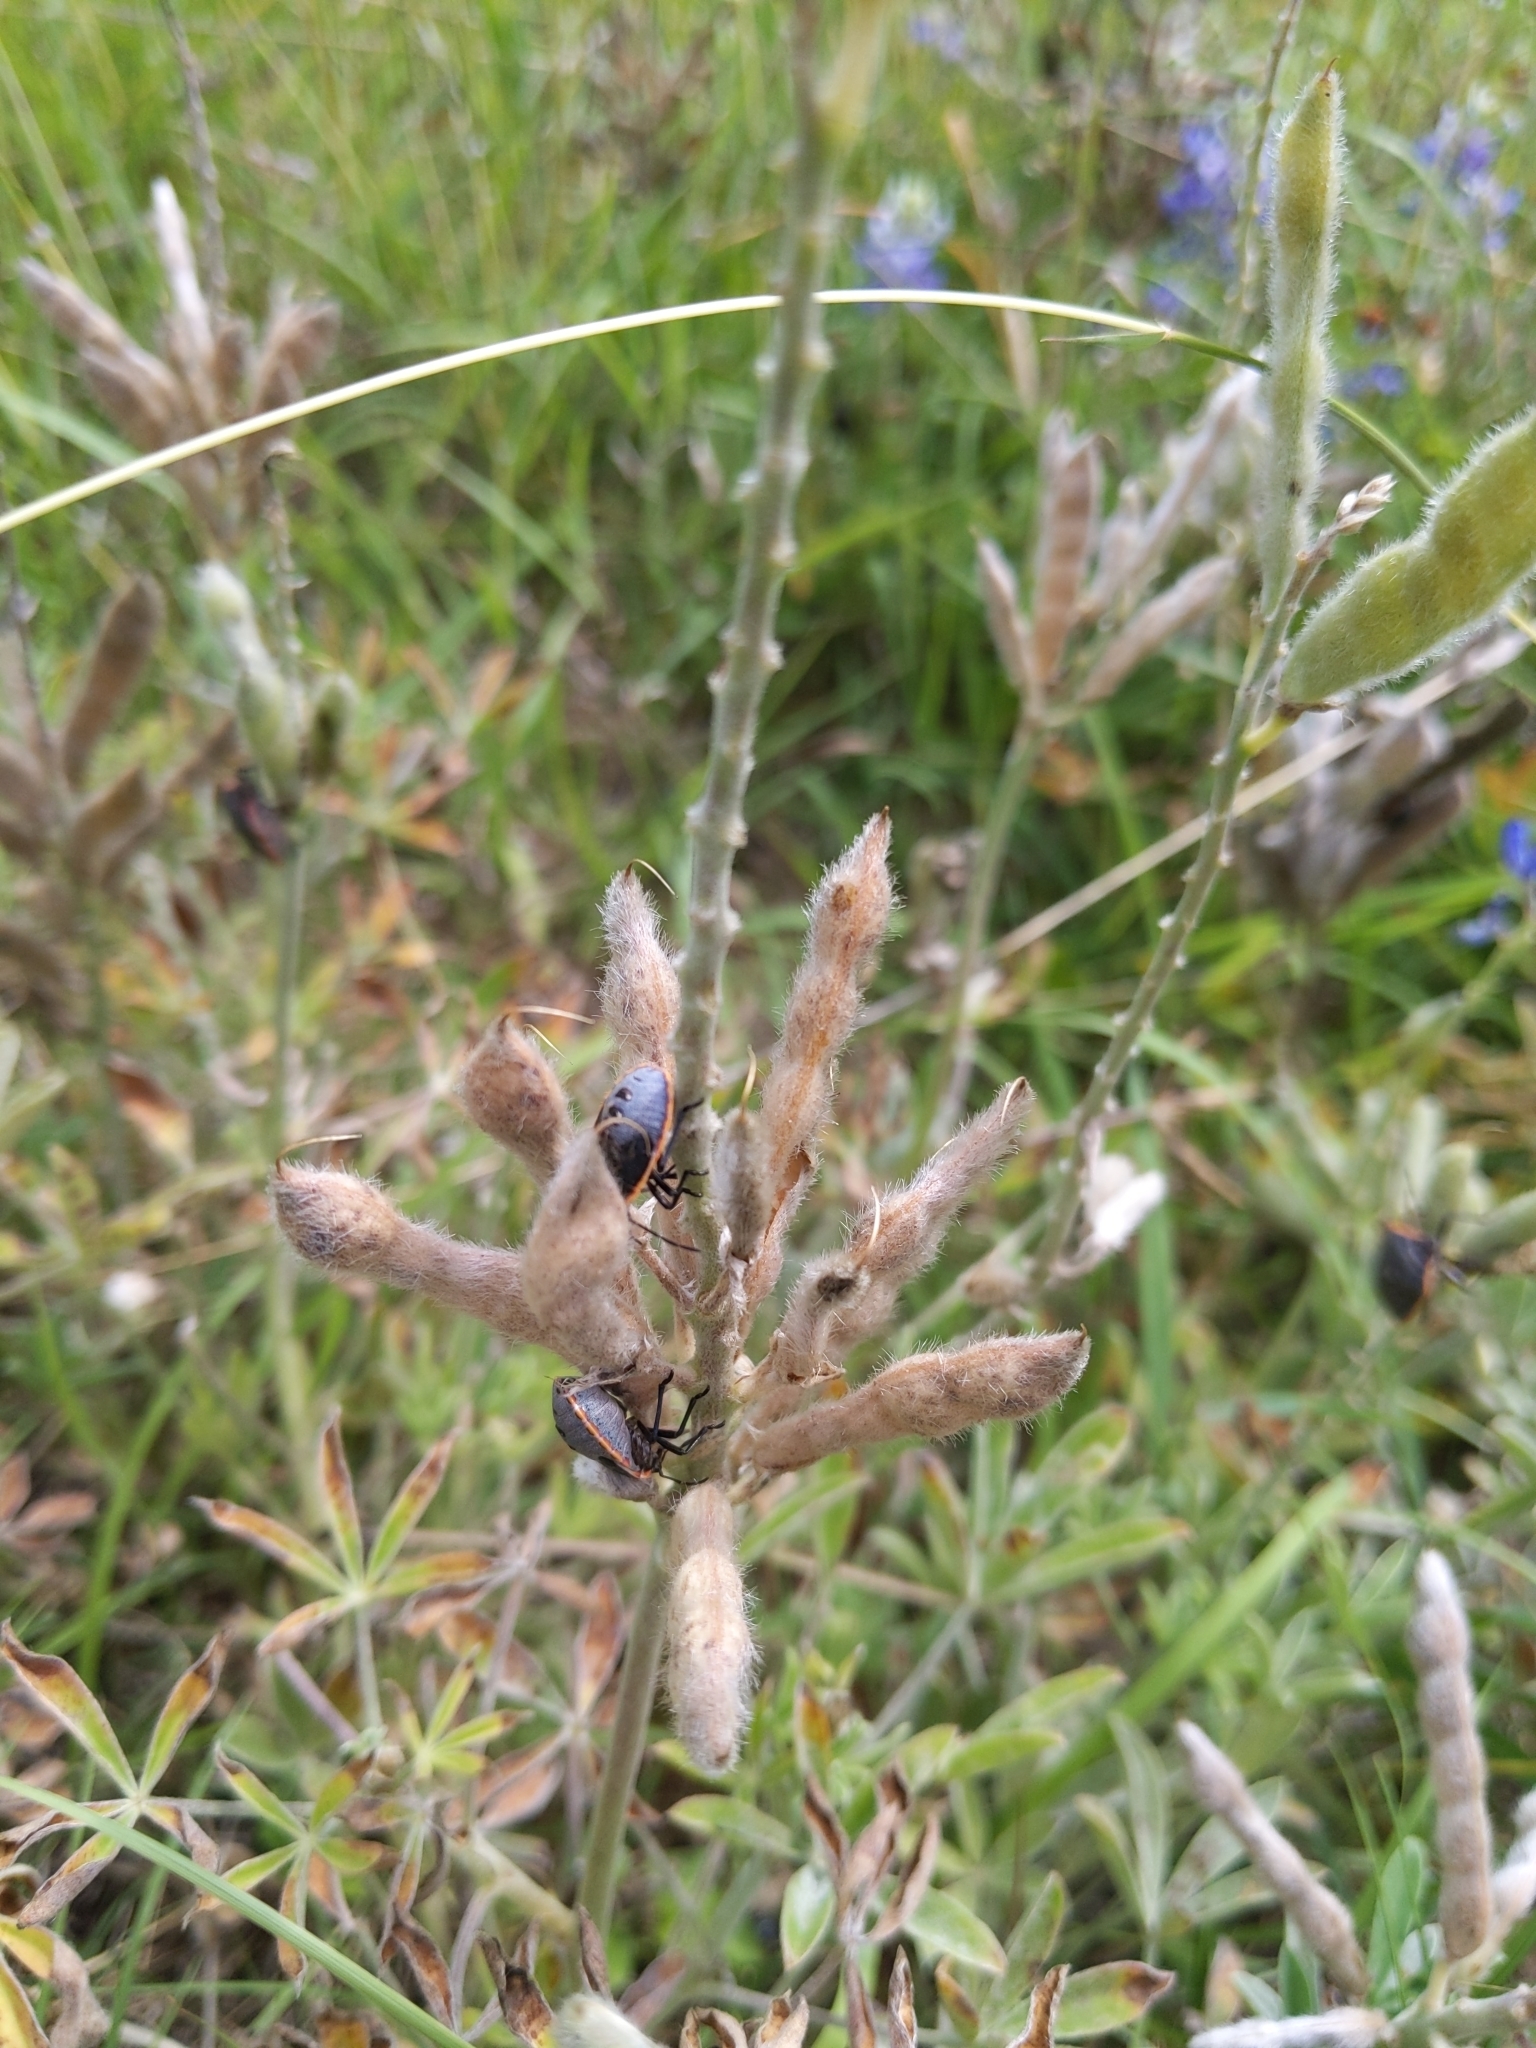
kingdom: Animalia
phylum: Arthropoda
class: Insecta
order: Hemiptera
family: Pentatomidae
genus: Chlorochroa
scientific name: Chlorochroa ligata
